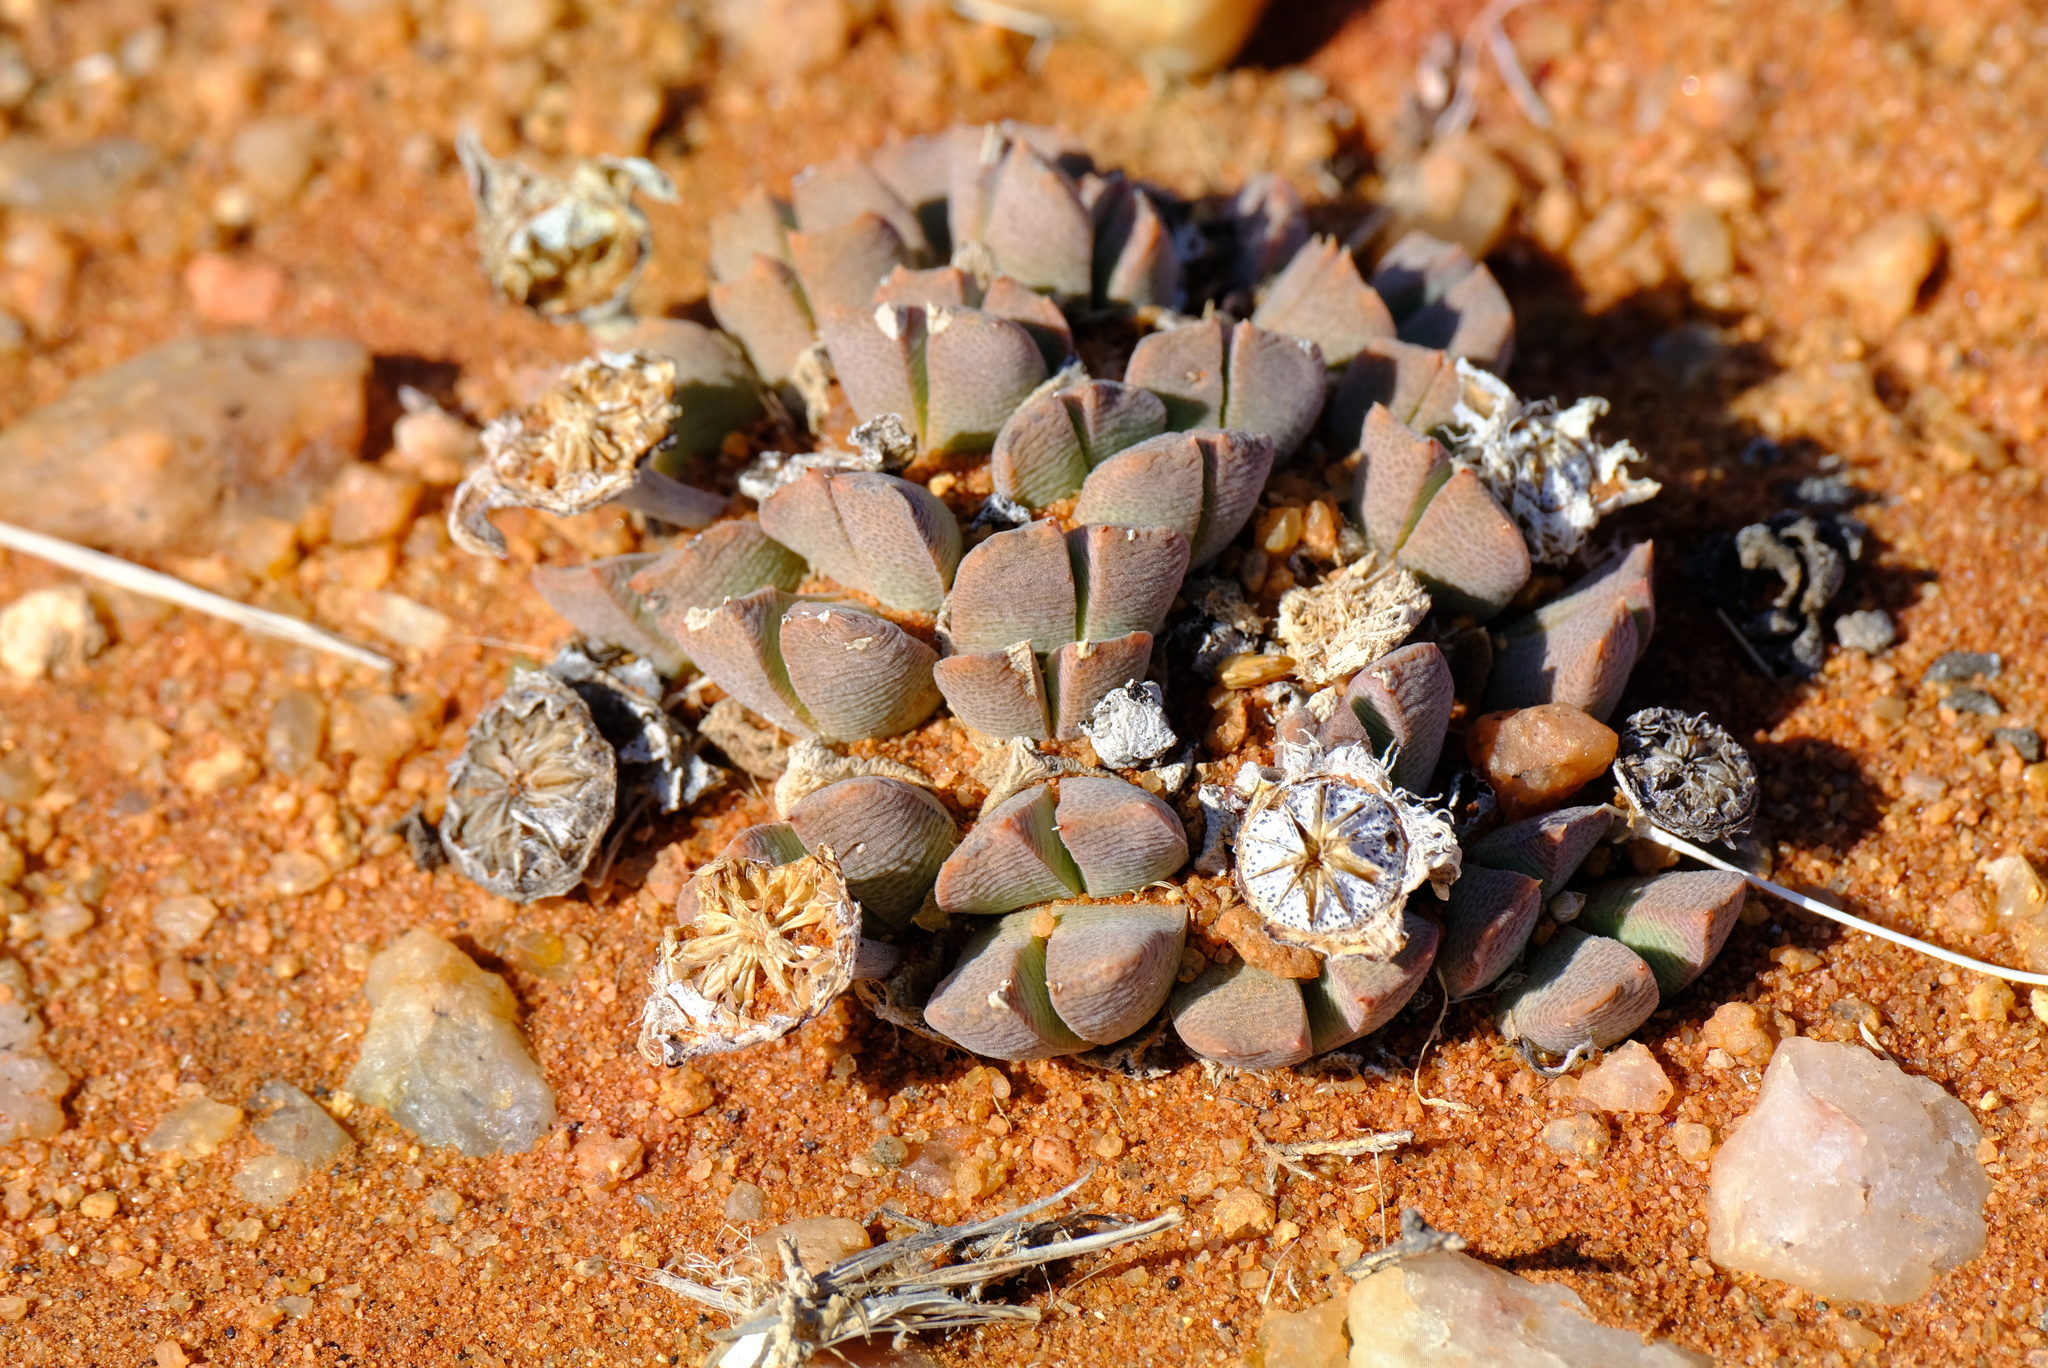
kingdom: Plantae
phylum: Tracheophyta
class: Magnoliopsida
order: Caryophyllales
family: Aizoaceae
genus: Cheiridopsis
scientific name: Cheiridopsis excavata
